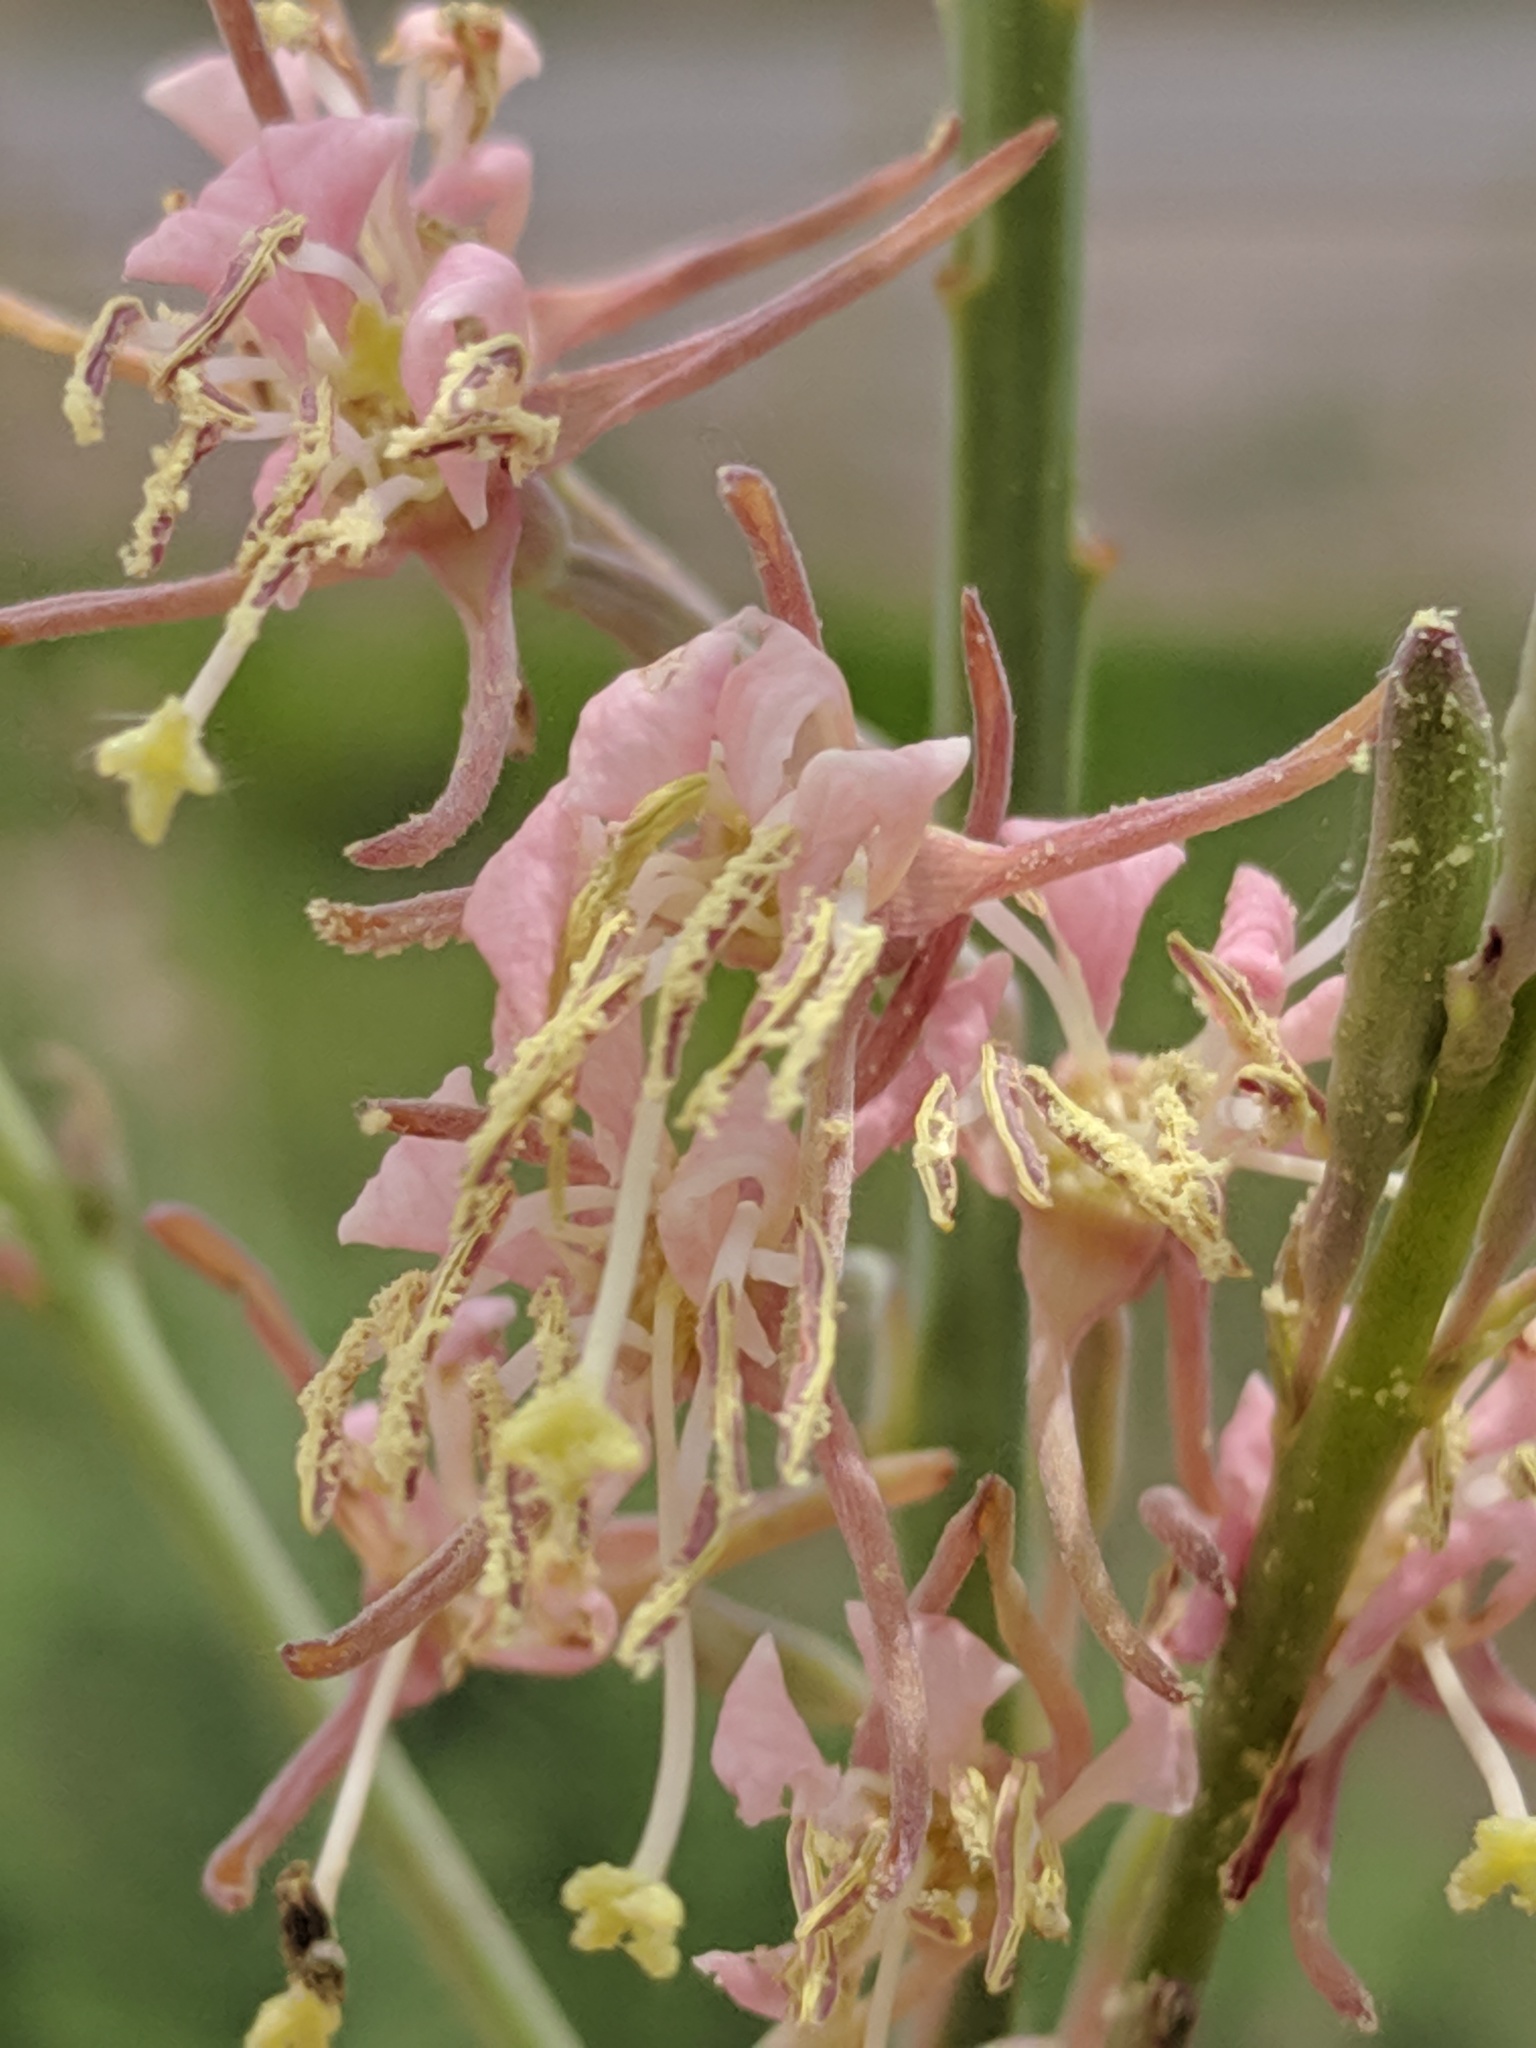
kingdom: Plantae
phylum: Tracheophyta
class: Magnoliopsida
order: Myrtales
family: Onagraceae
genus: Oenothera
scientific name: Oenothera cinerea
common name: Woolly beeblossom
